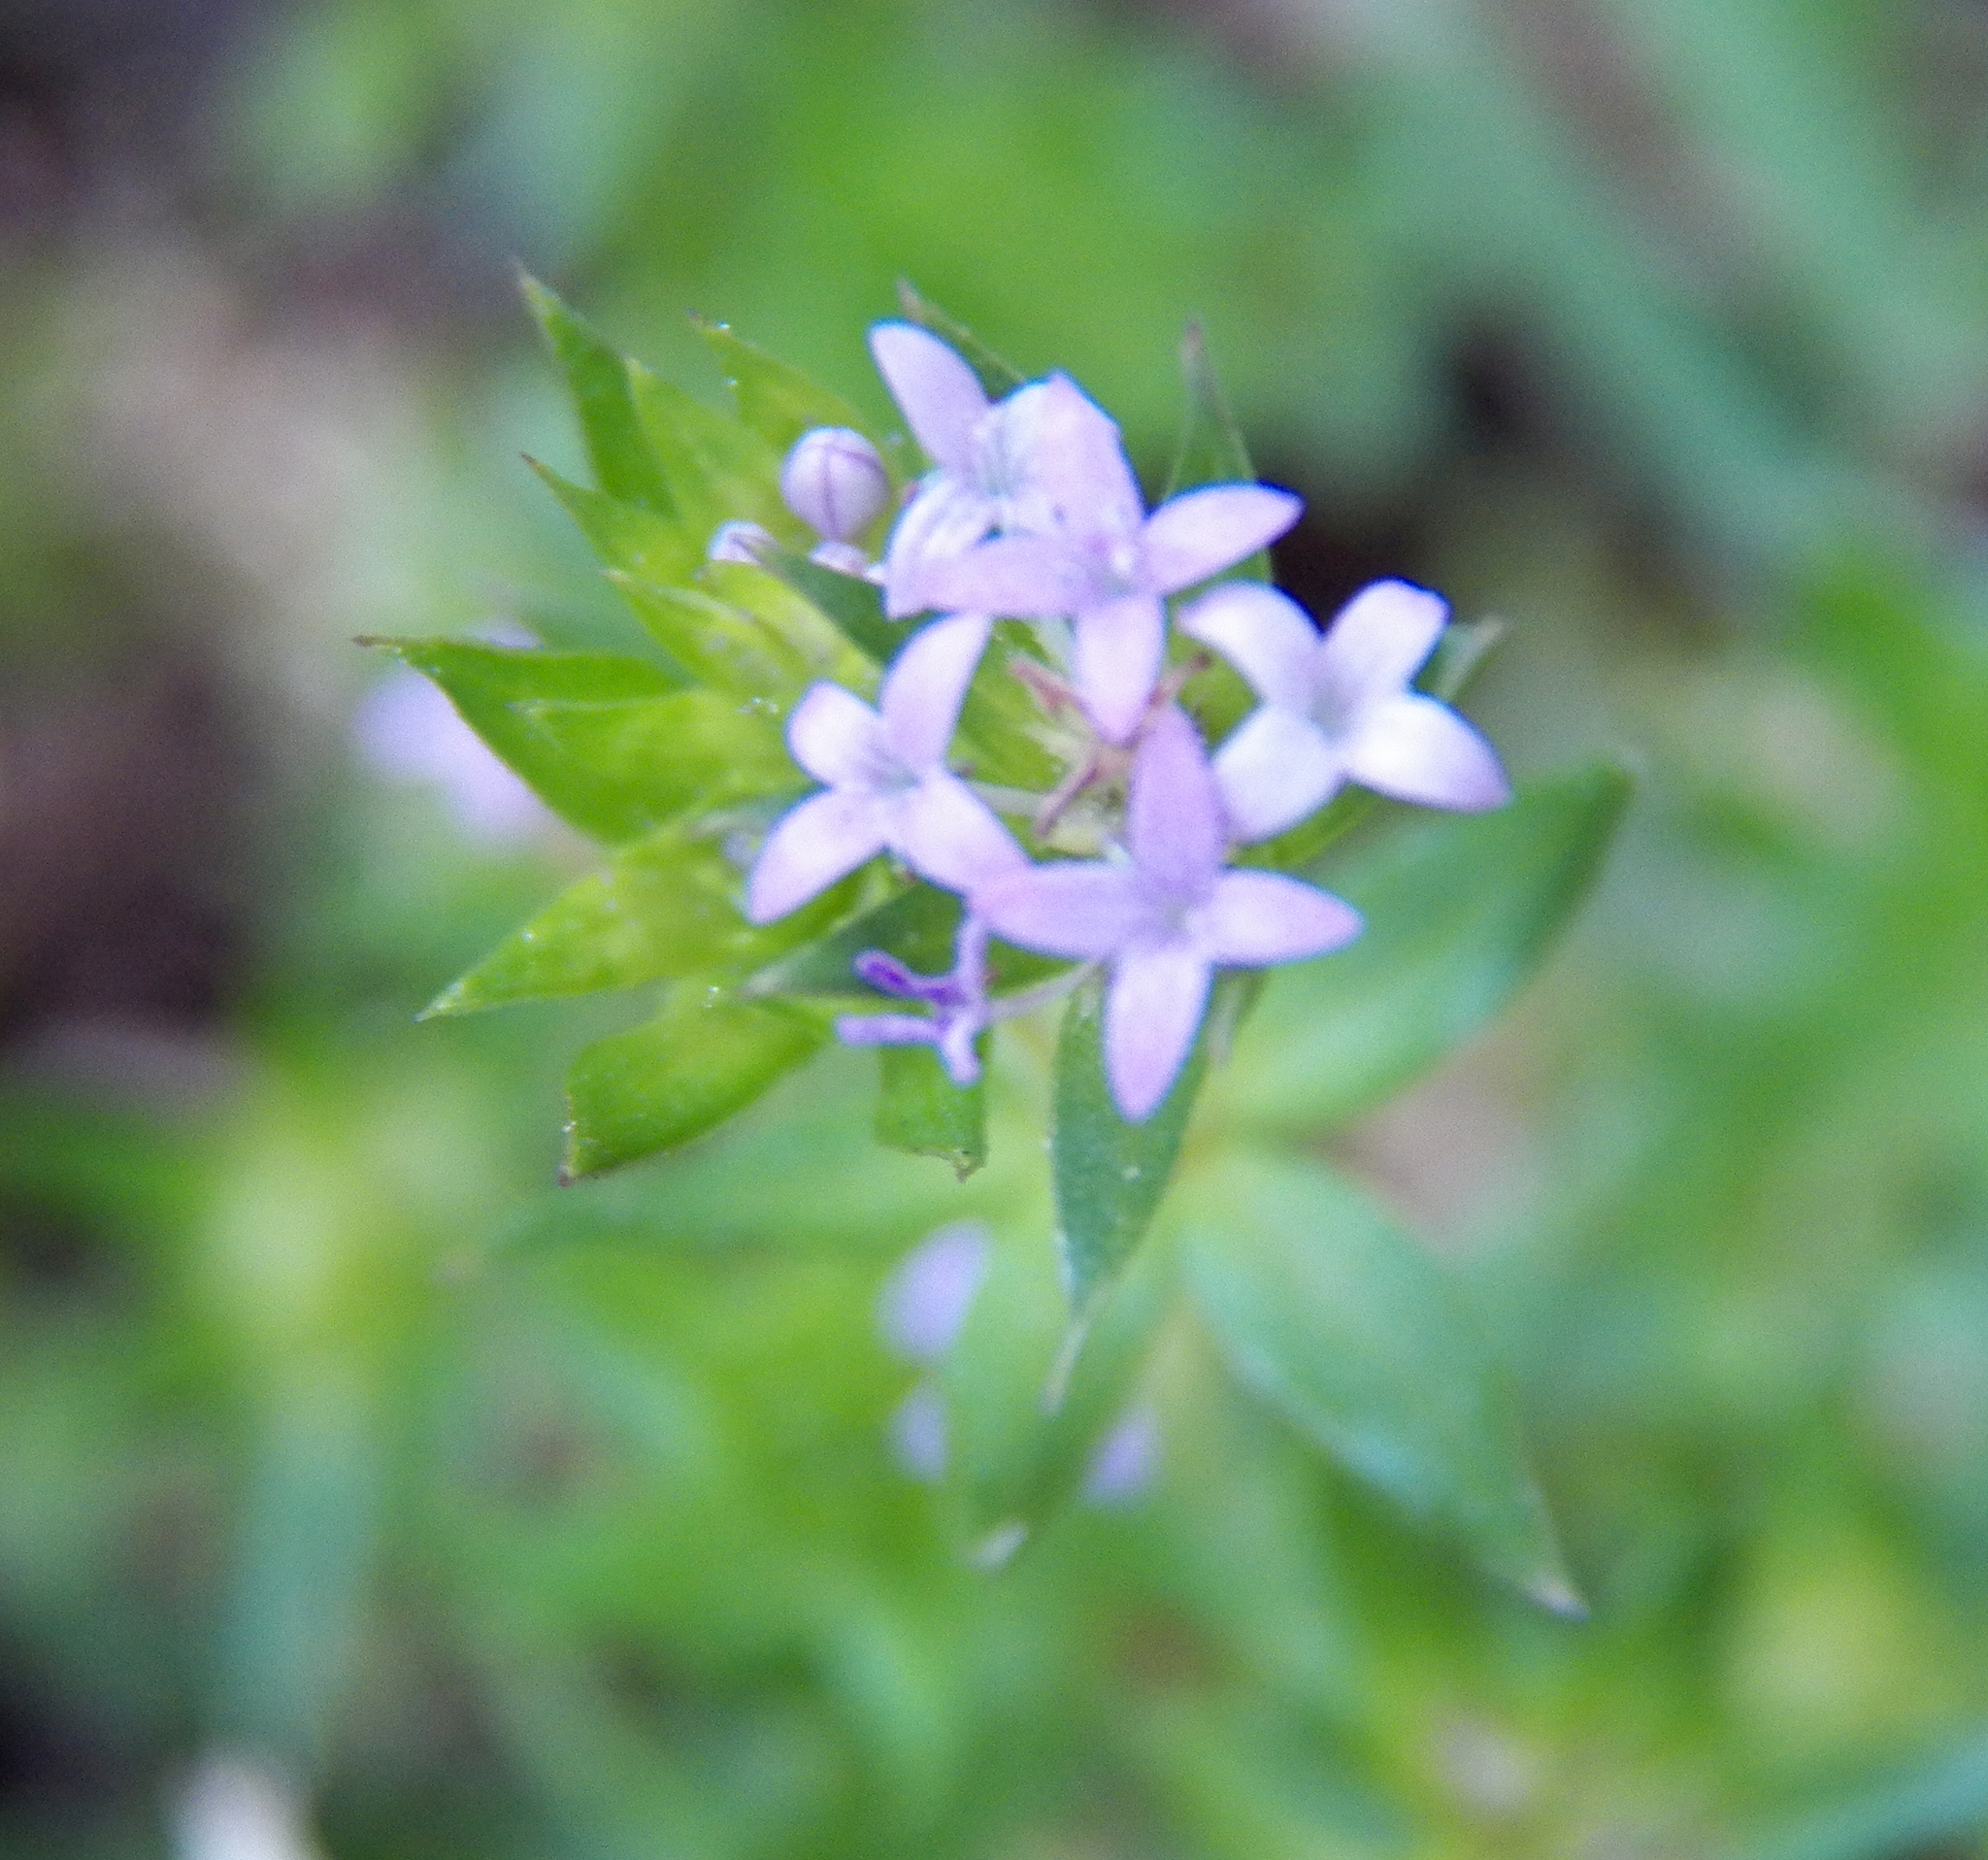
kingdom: Plantae
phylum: Tracheophyta
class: Magnoliopsida
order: Gentianales
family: Rubiaceae
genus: Sherardia
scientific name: Sherardia arvensis
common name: Field madder
